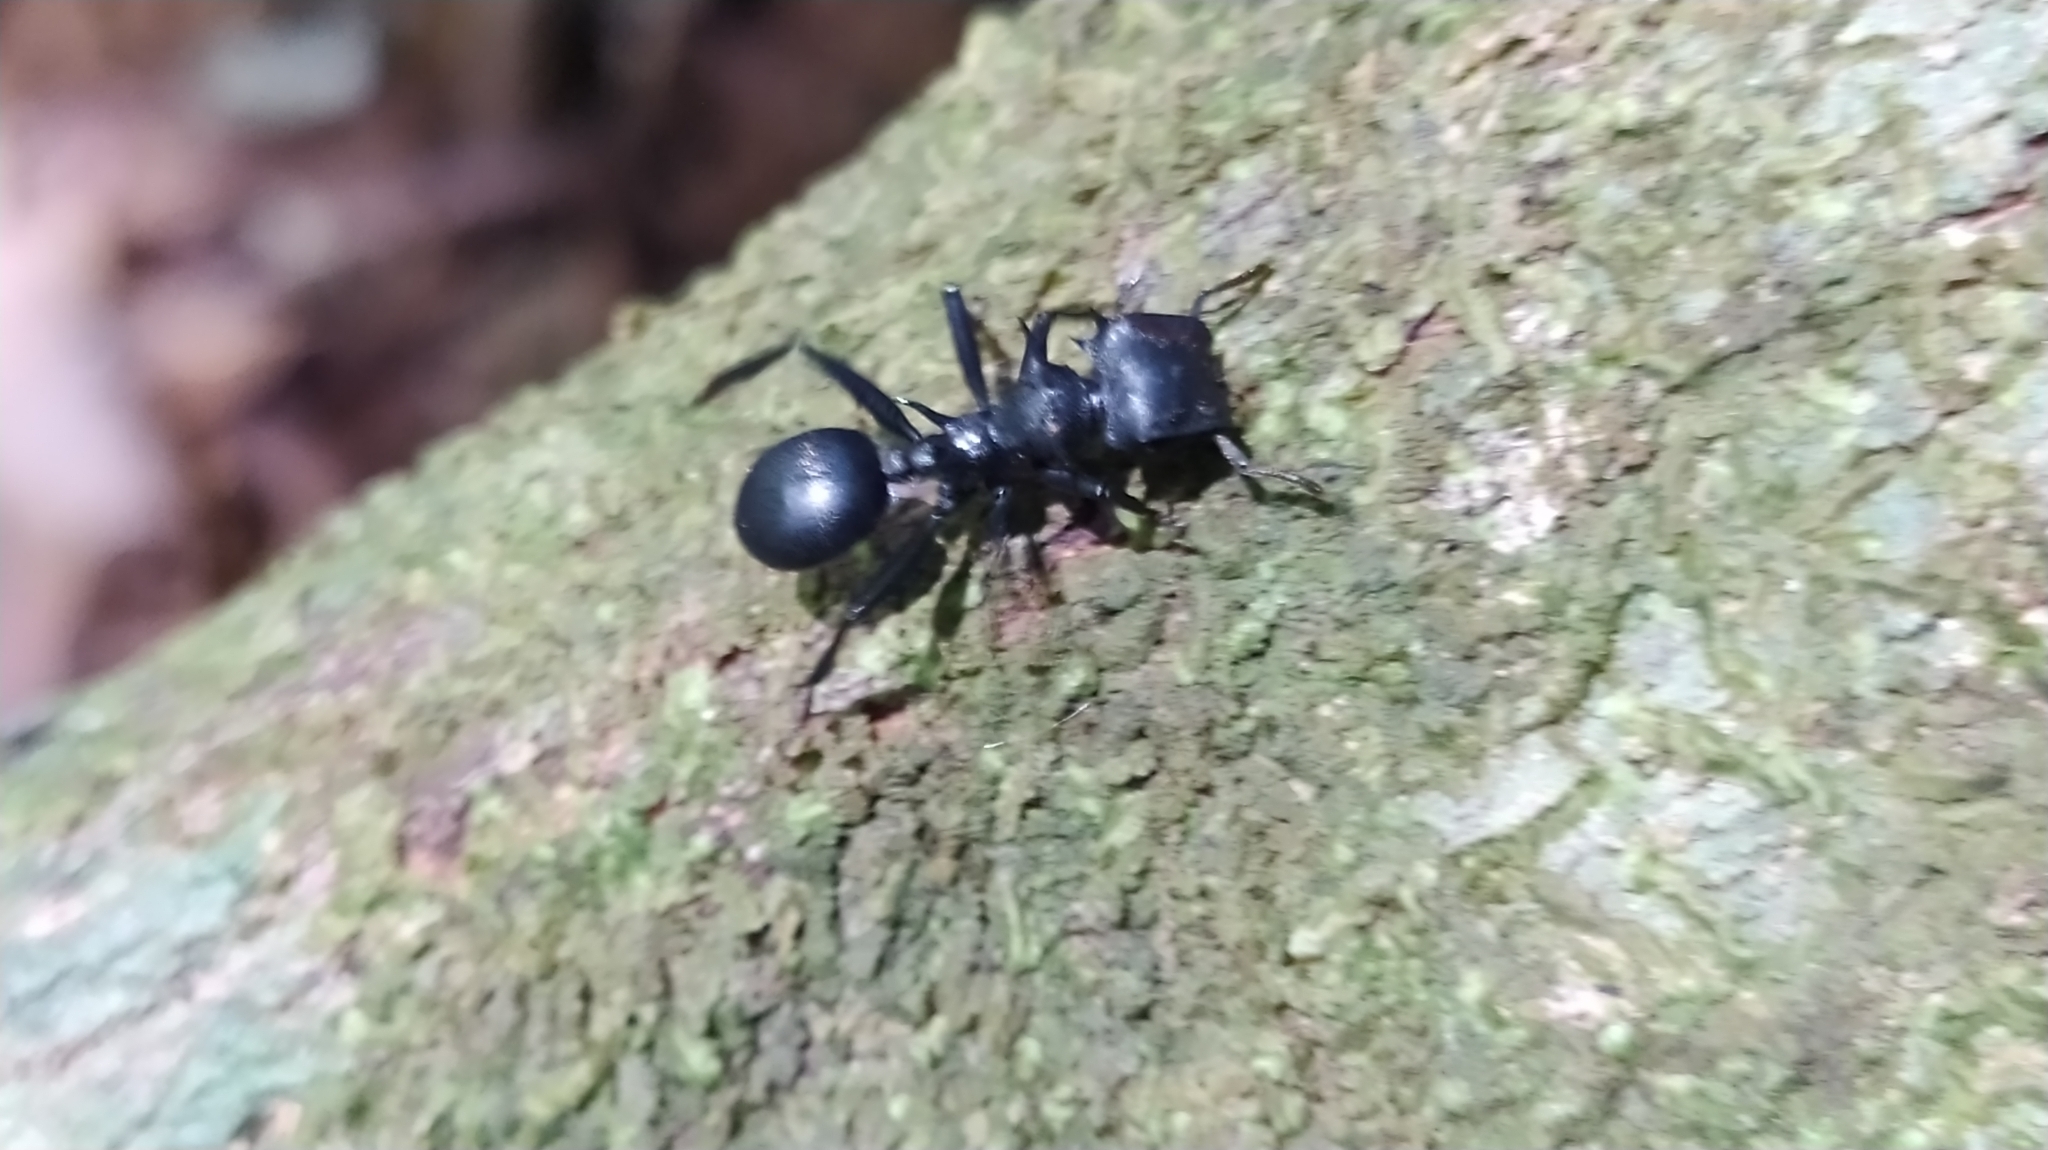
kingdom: Animalia
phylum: Arthropoda
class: Insecta
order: Hymenoptera
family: Formicidae
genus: Cephalotes
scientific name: Cephalotes
